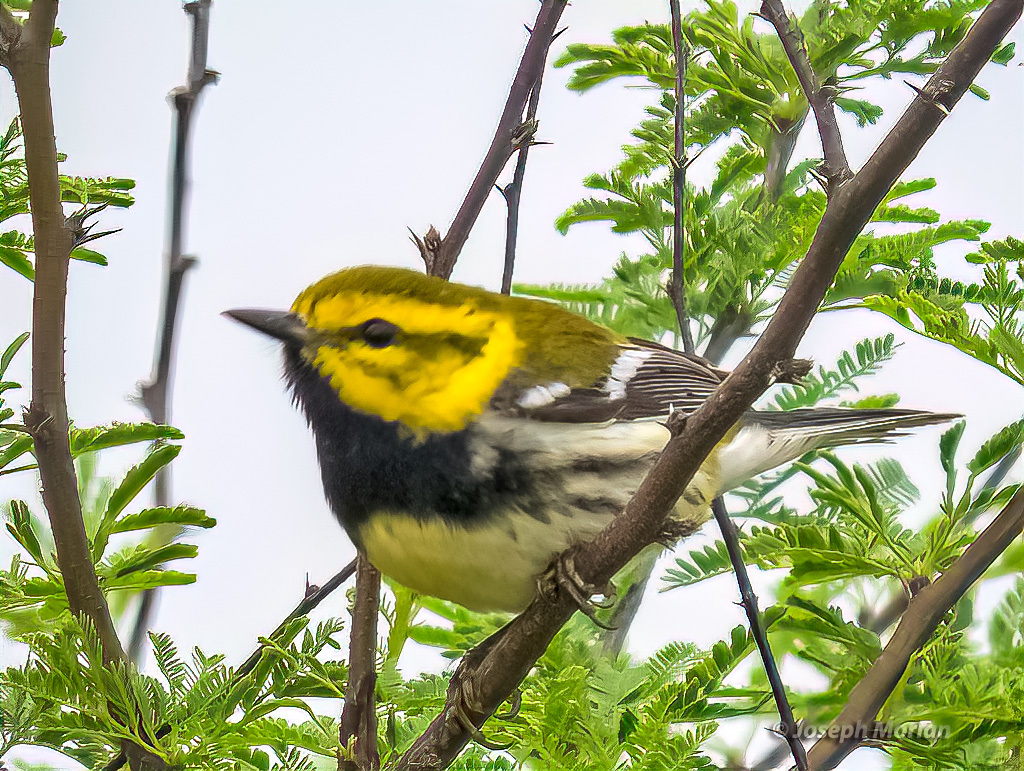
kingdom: Animalia
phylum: Chordata
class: Aves
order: Passeriformes
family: Parulidae
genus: Setophaga
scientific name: Setophaga virens
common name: Black-throated green warbler
